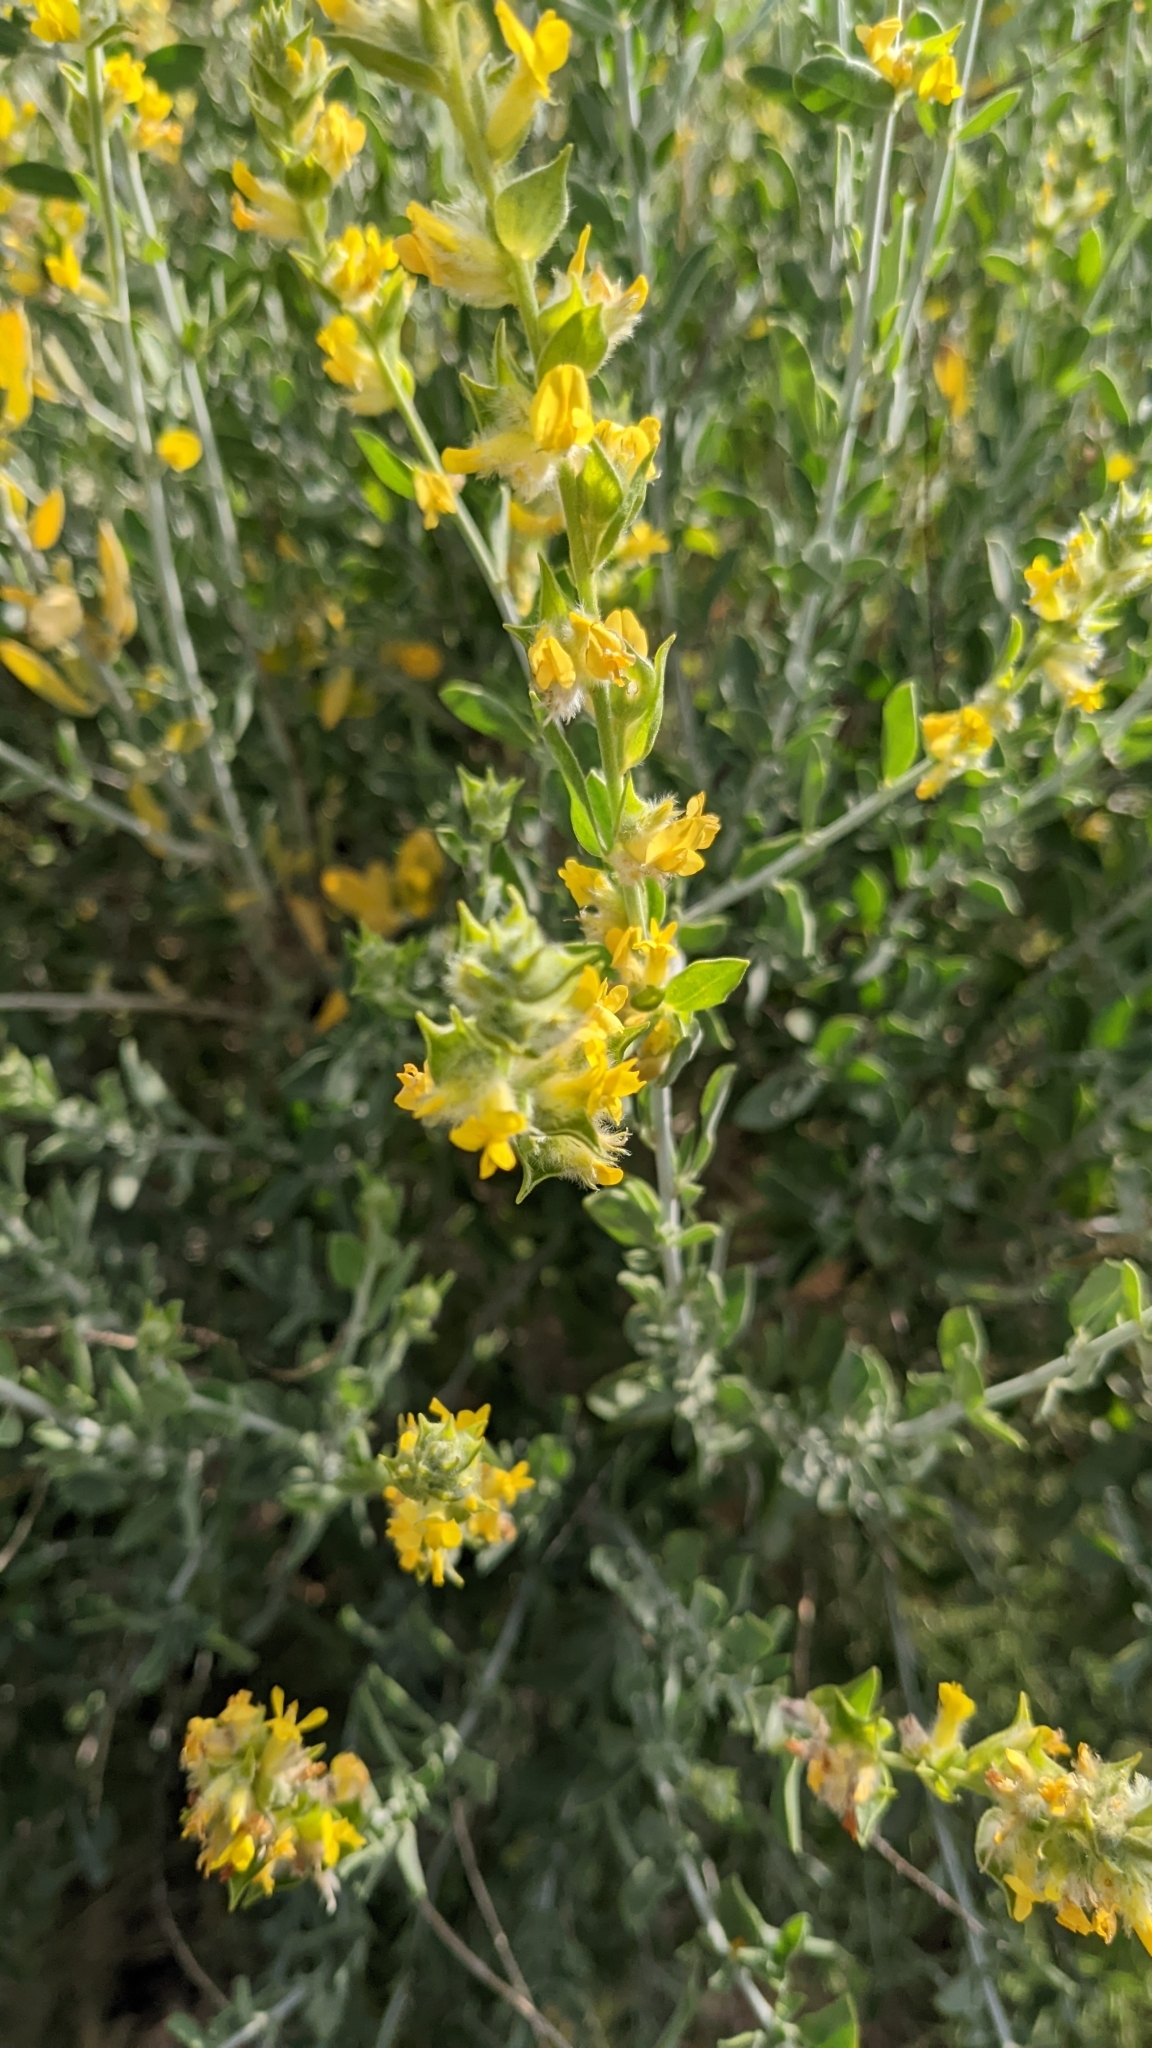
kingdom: Plantae
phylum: Tracheophyta
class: Magnoliopsida
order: Fabales
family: Fabaceae
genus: Anthyllis
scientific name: Anthyllis cytisoides
